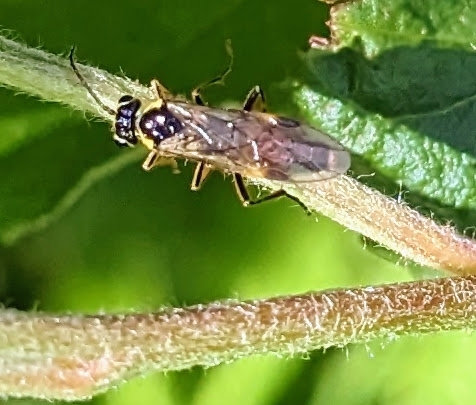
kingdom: Animalia
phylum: Arthropoda
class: Insecta
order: Hymenoptera
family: Tenthredinidae
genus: Aglaostigma
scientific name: Aglaostigma fulvipes
